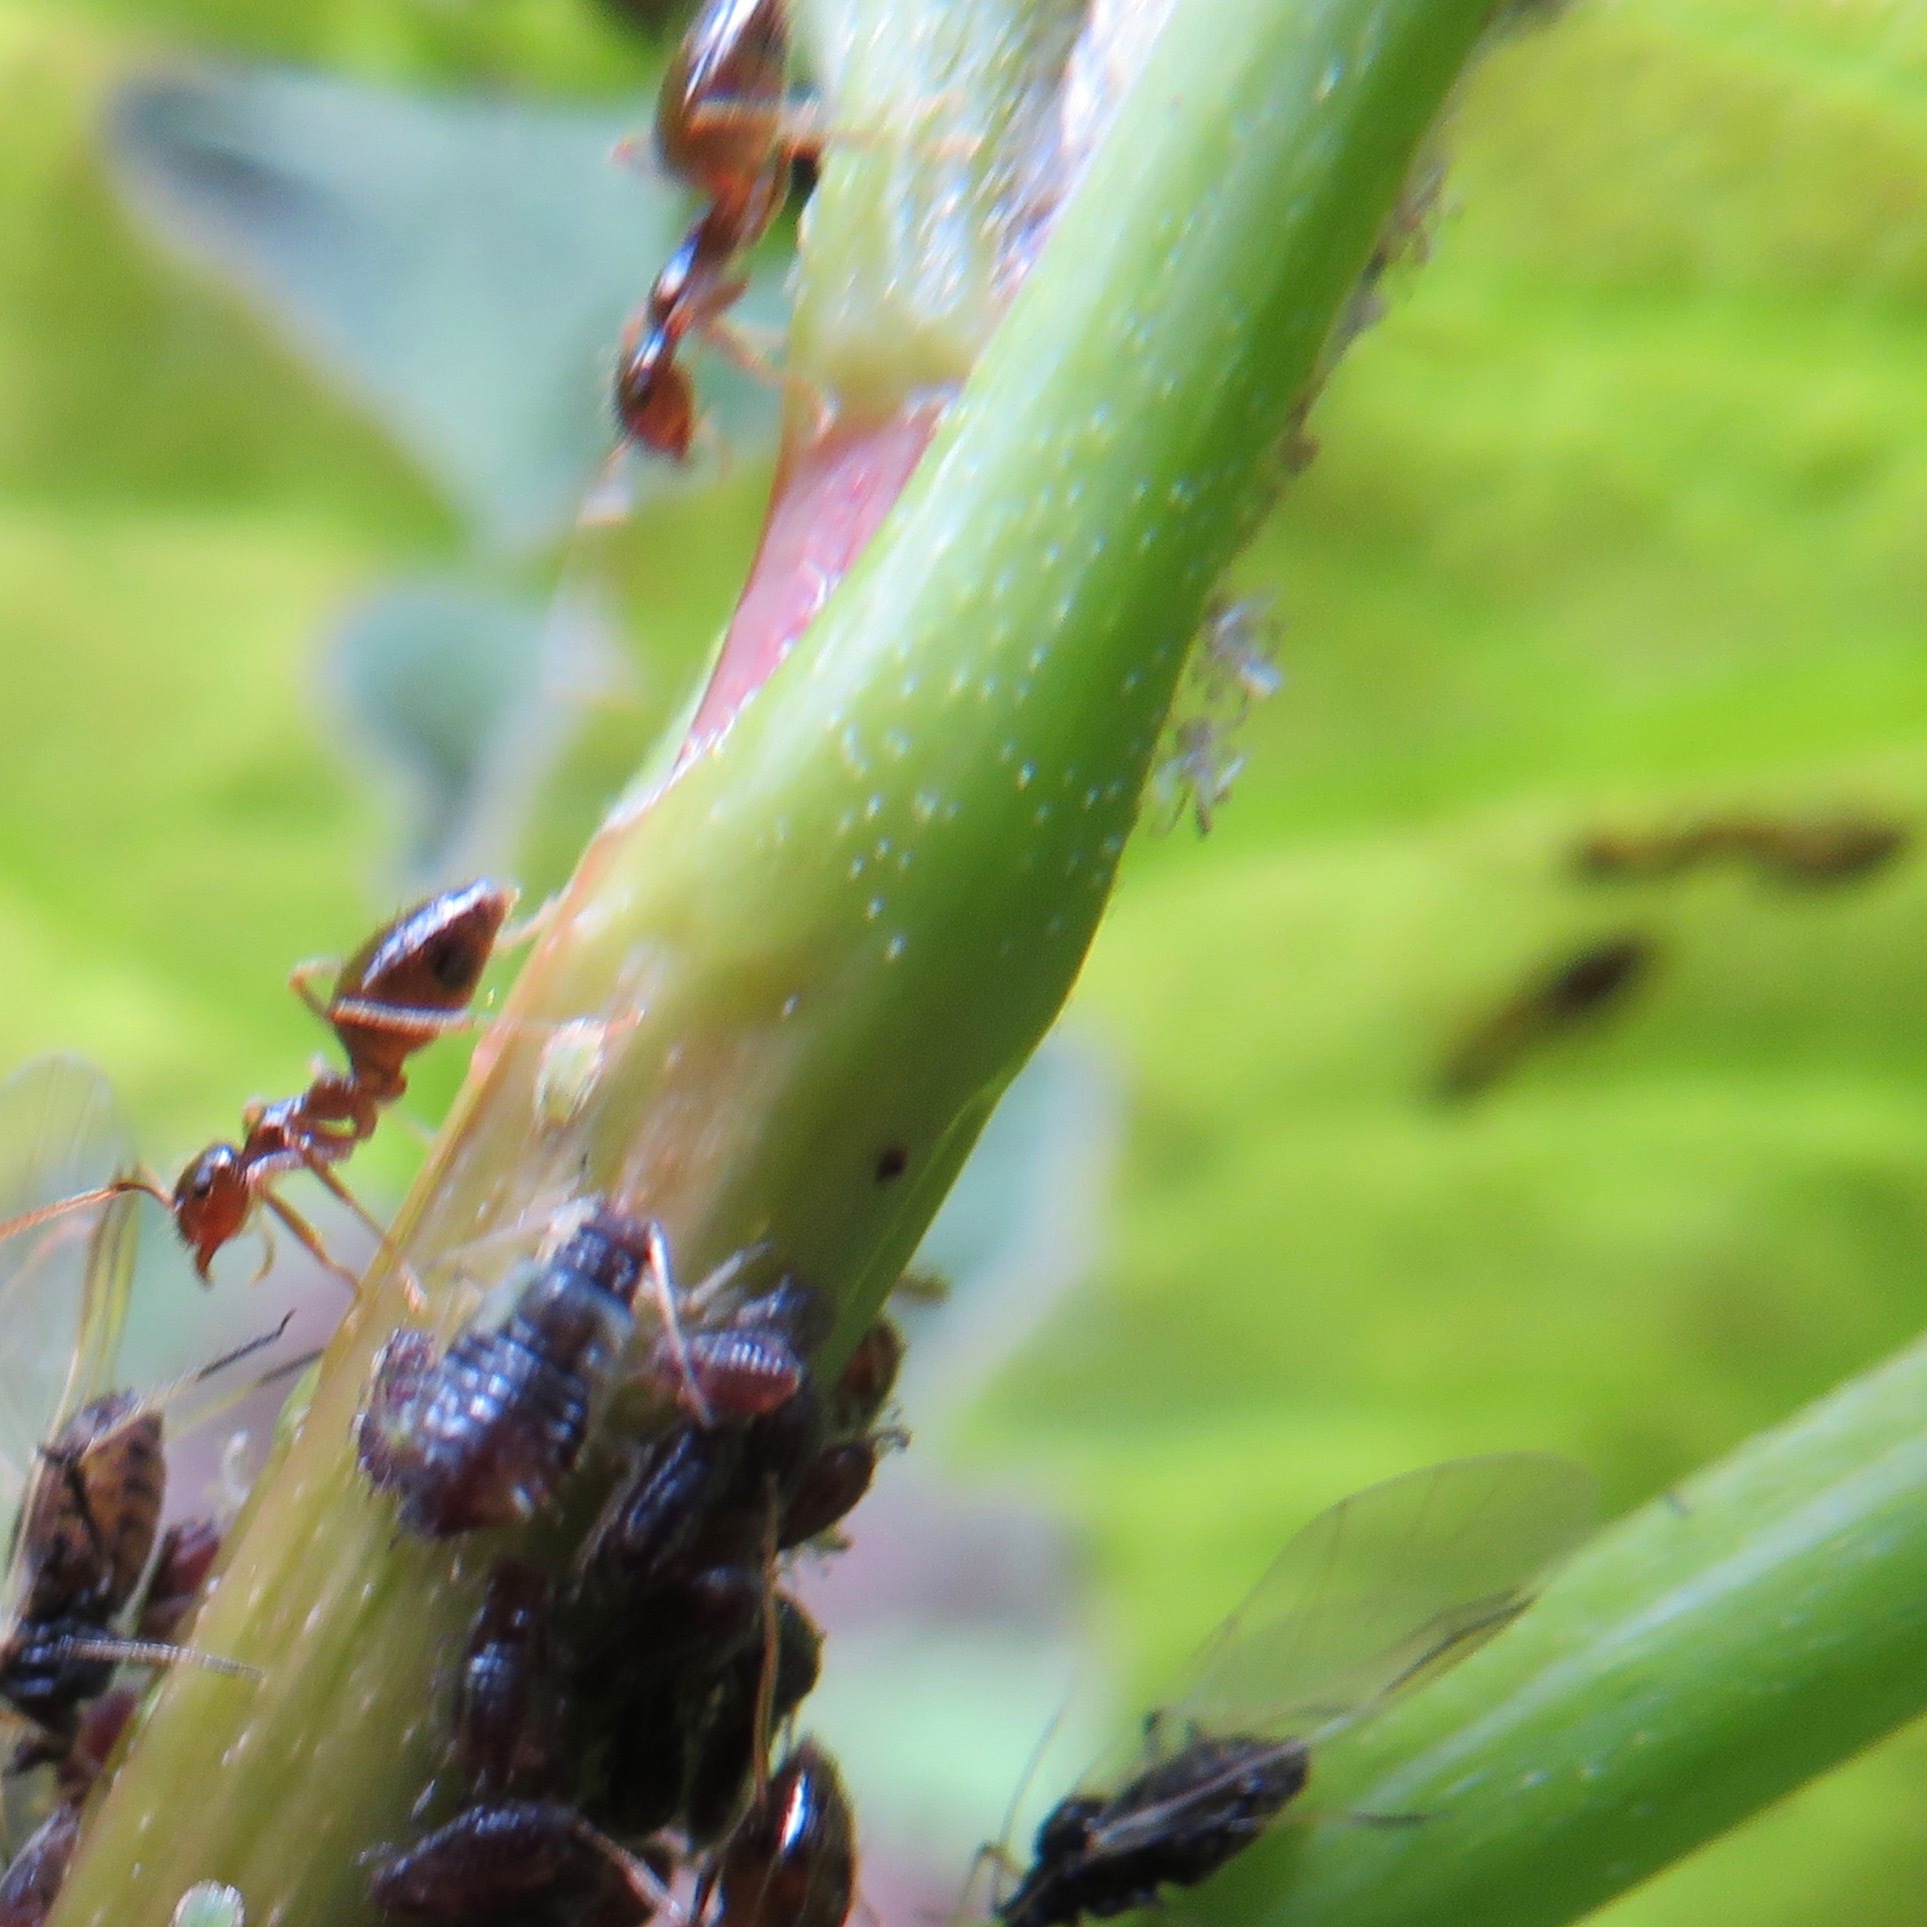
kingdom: Animalia
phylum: Arthropoda
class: Insecta
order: Hymenoptera
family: Formicidae
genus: Prenolepis
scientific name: Prenolepis imparis
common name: Small honey ant
